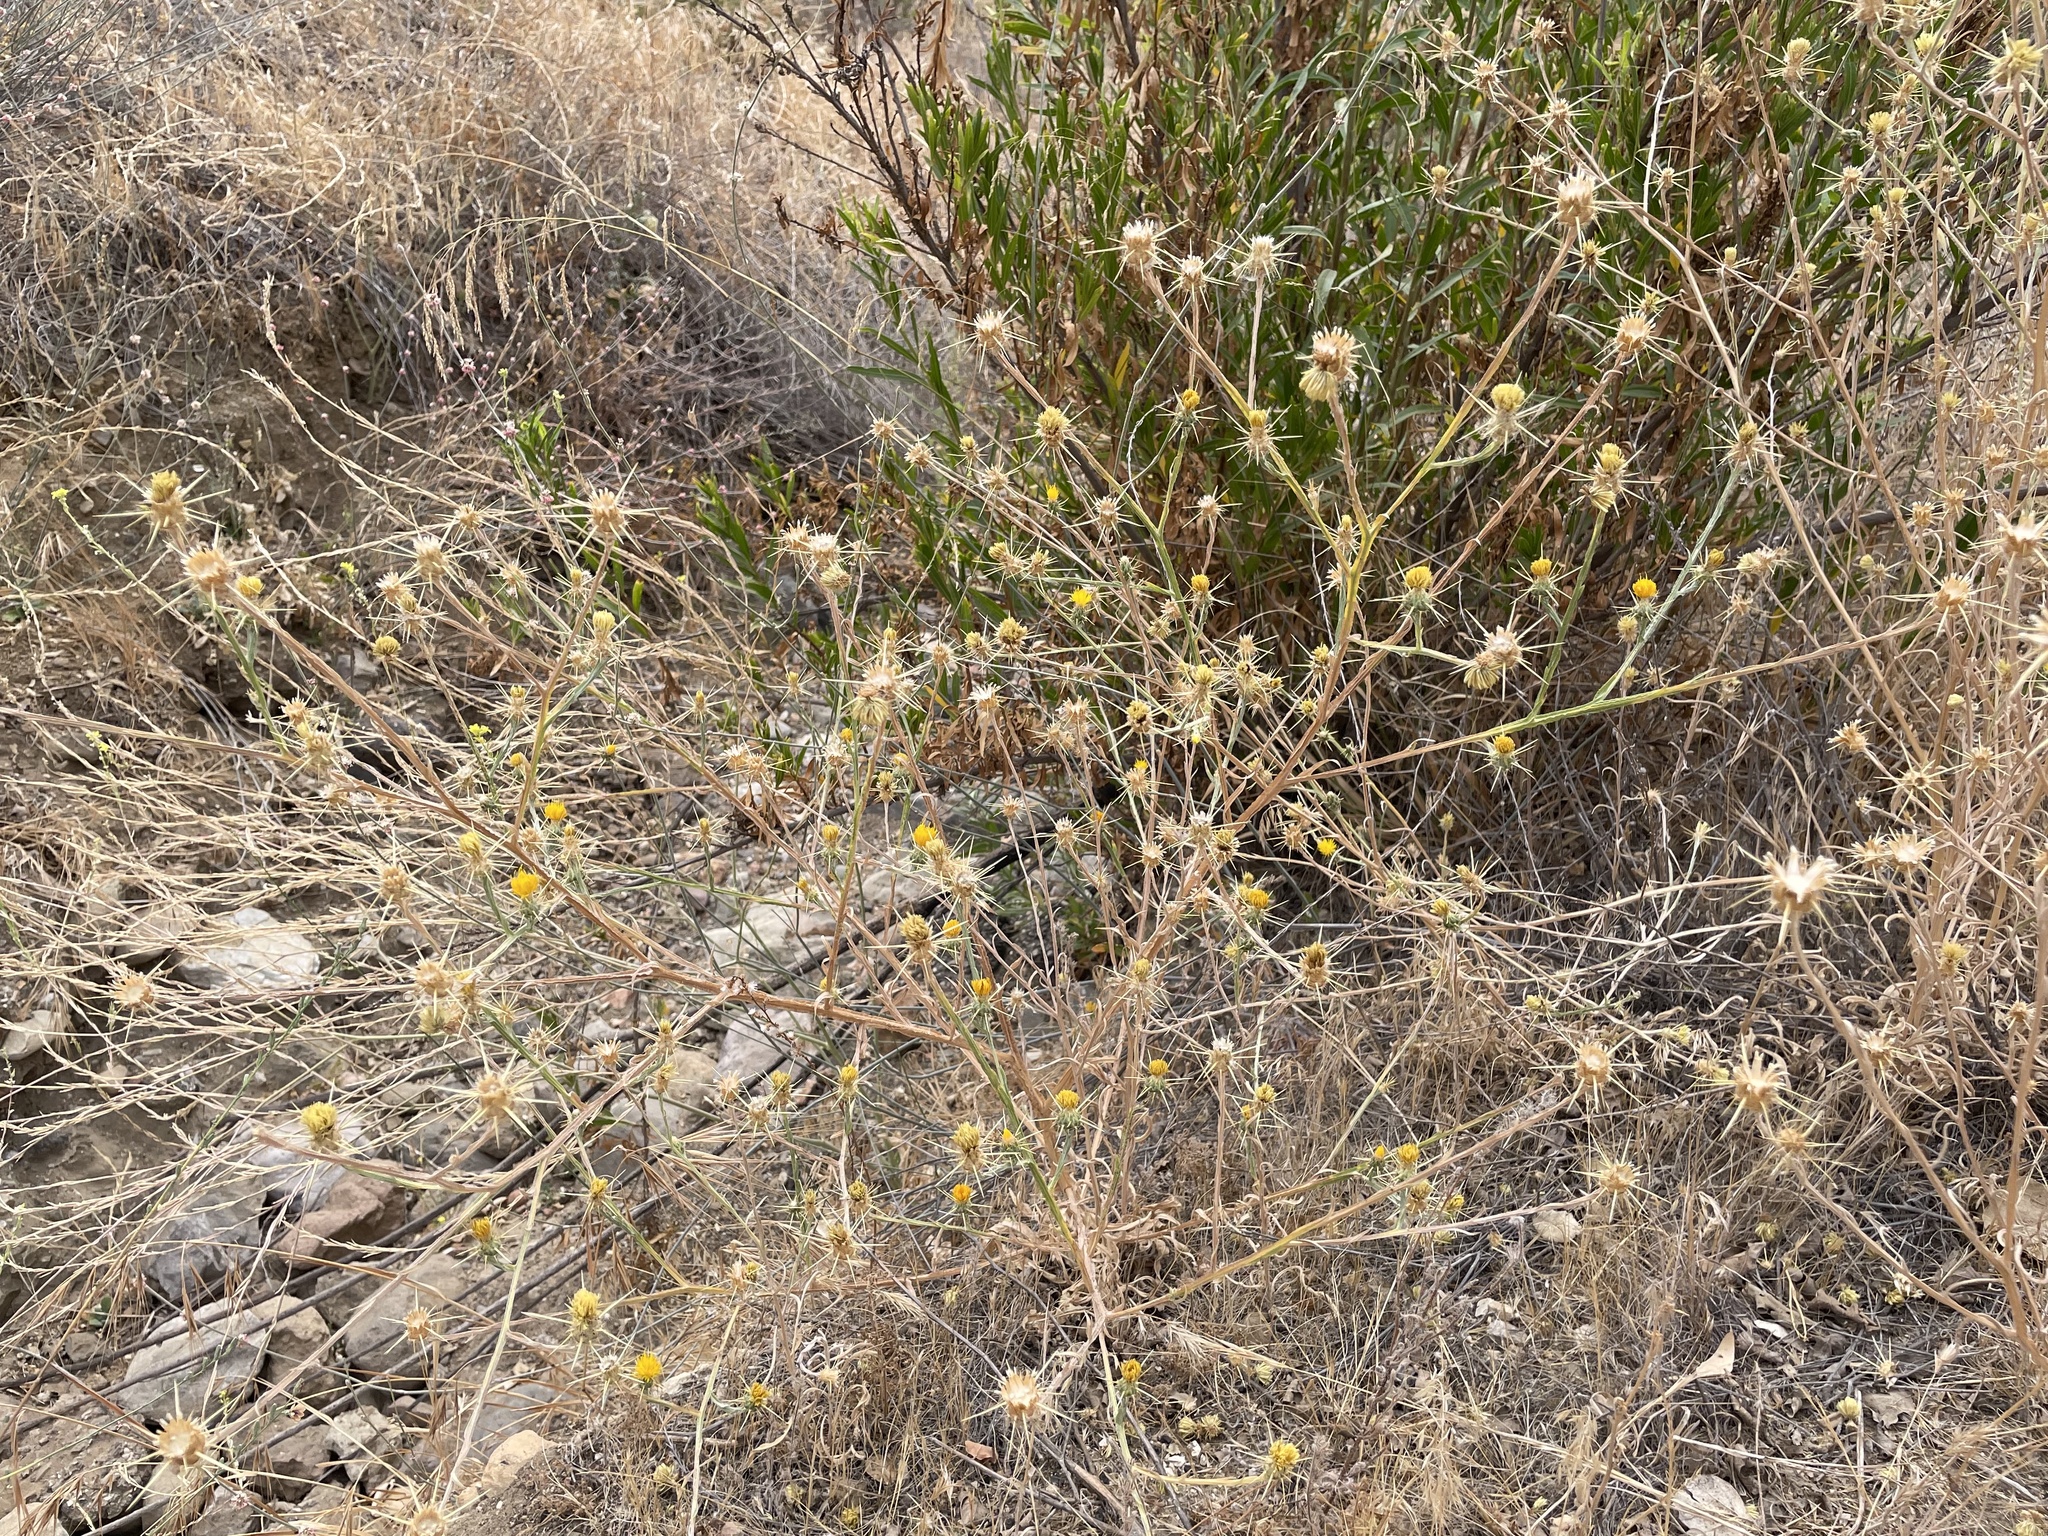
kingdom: Plantae
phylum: Tracheophyta
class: Magnoliopsida
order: Asterales
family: Asteraceae
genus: Centaurea
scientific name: Centaurea solstitialis
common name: Yellow star-thistle
